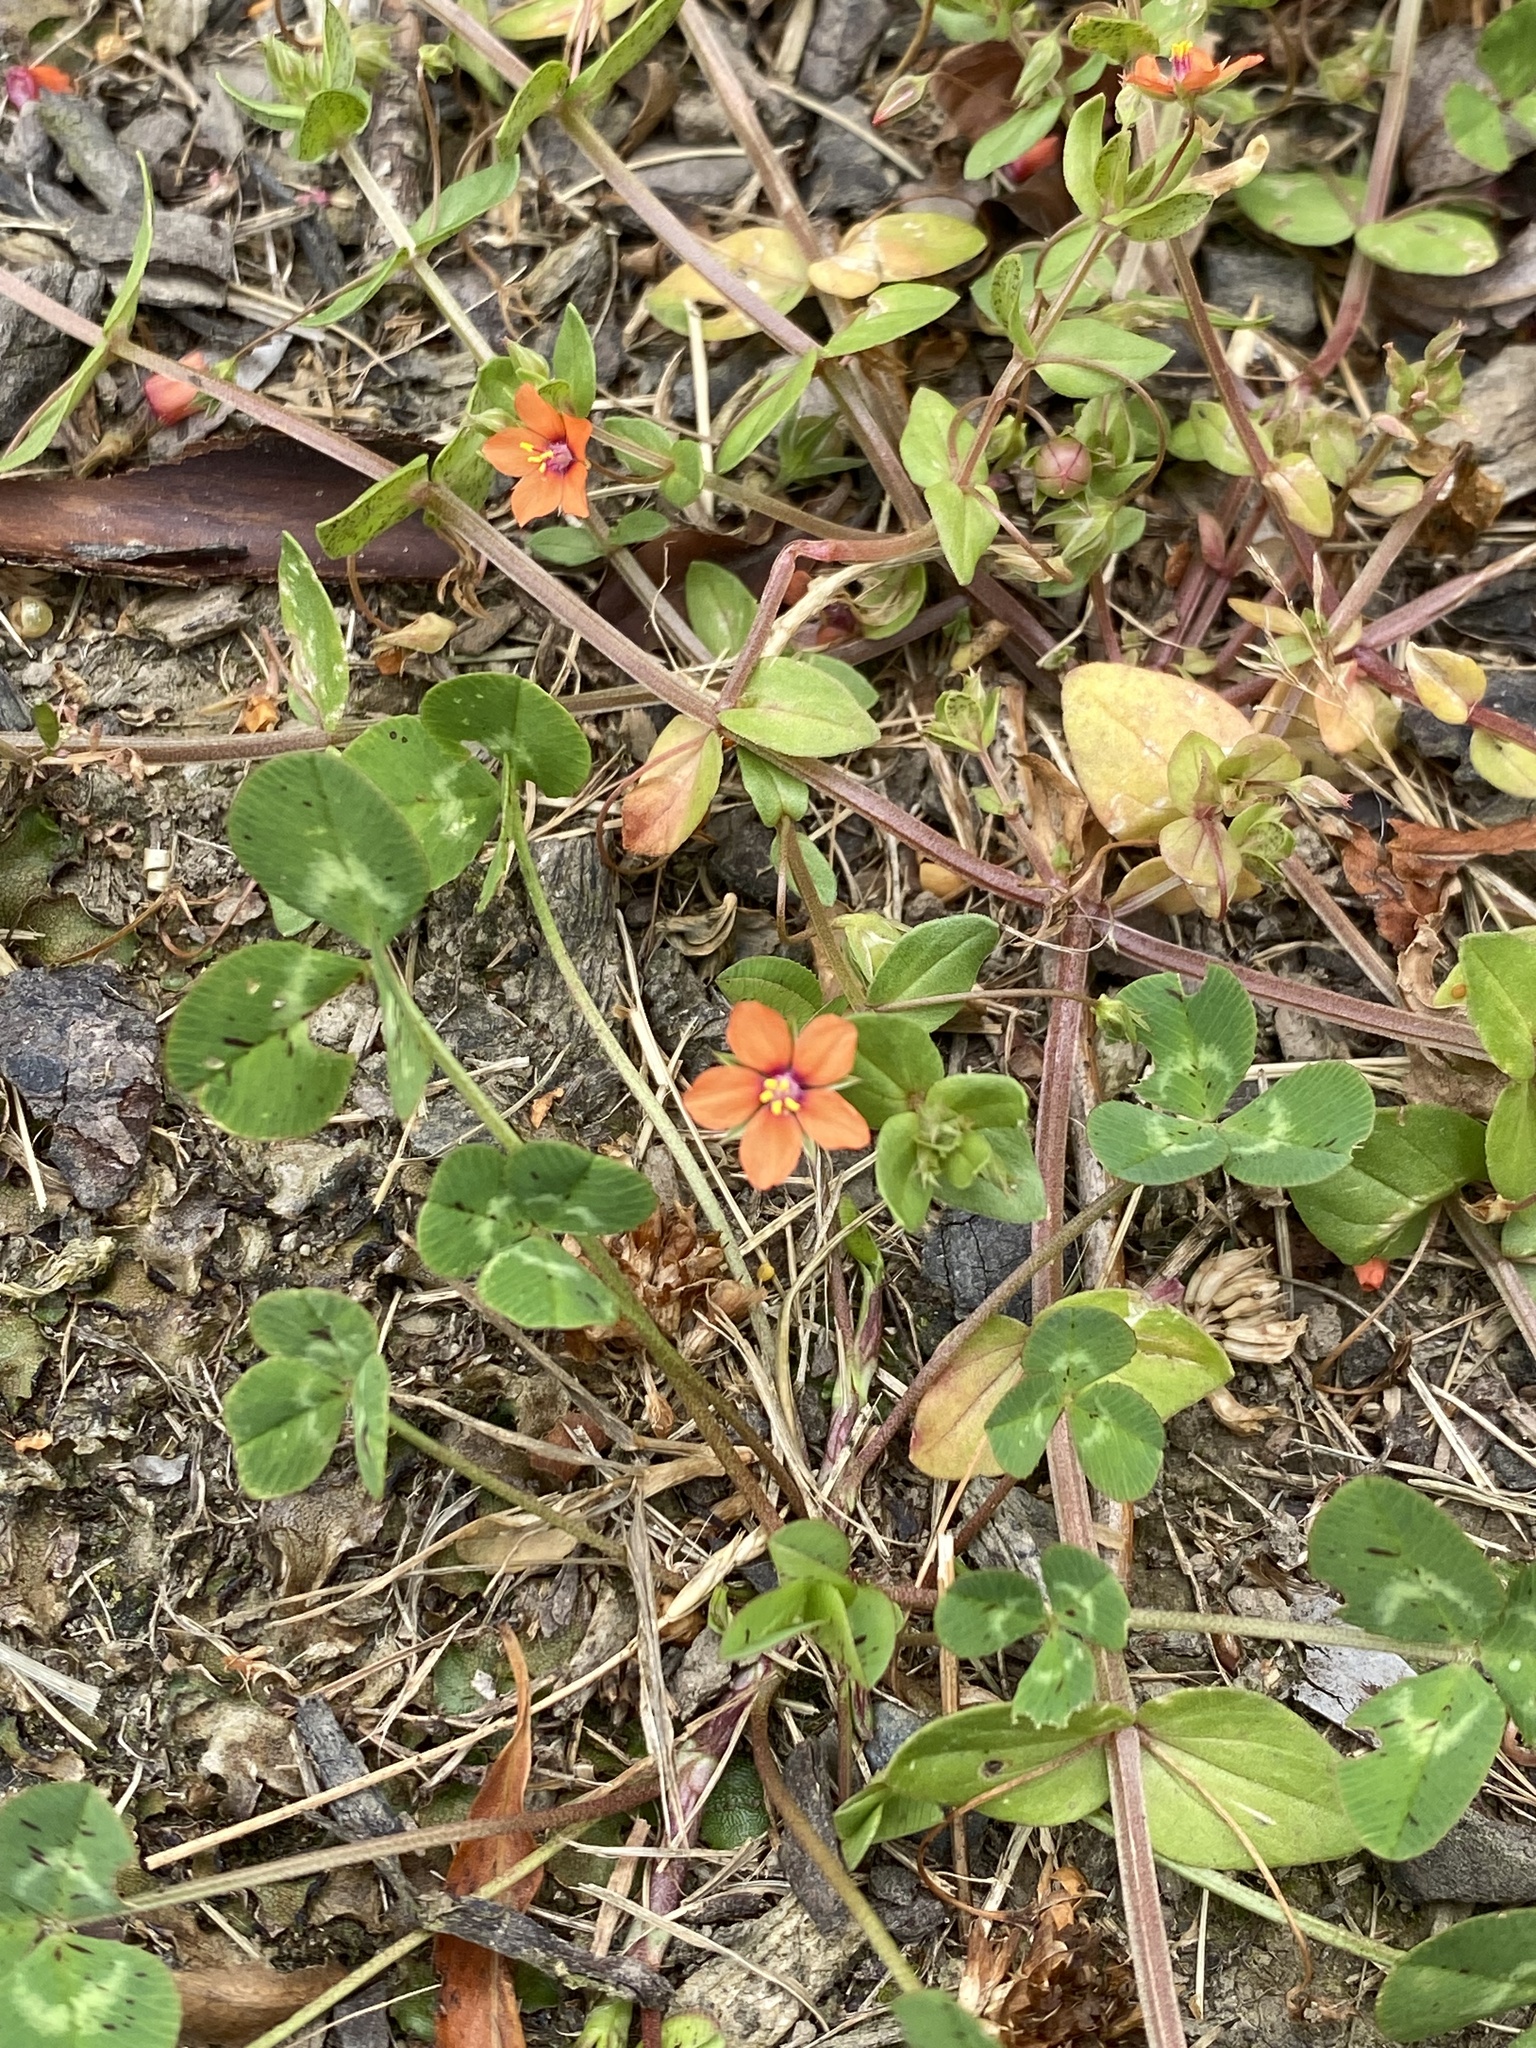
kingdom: Plantae
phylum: Tracheophyta
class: Magnoliopsida
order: Ericales
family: Primulaceae
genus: Lysimachia
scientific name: Lysimachia arvensis
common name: Scarlet pimpernel
